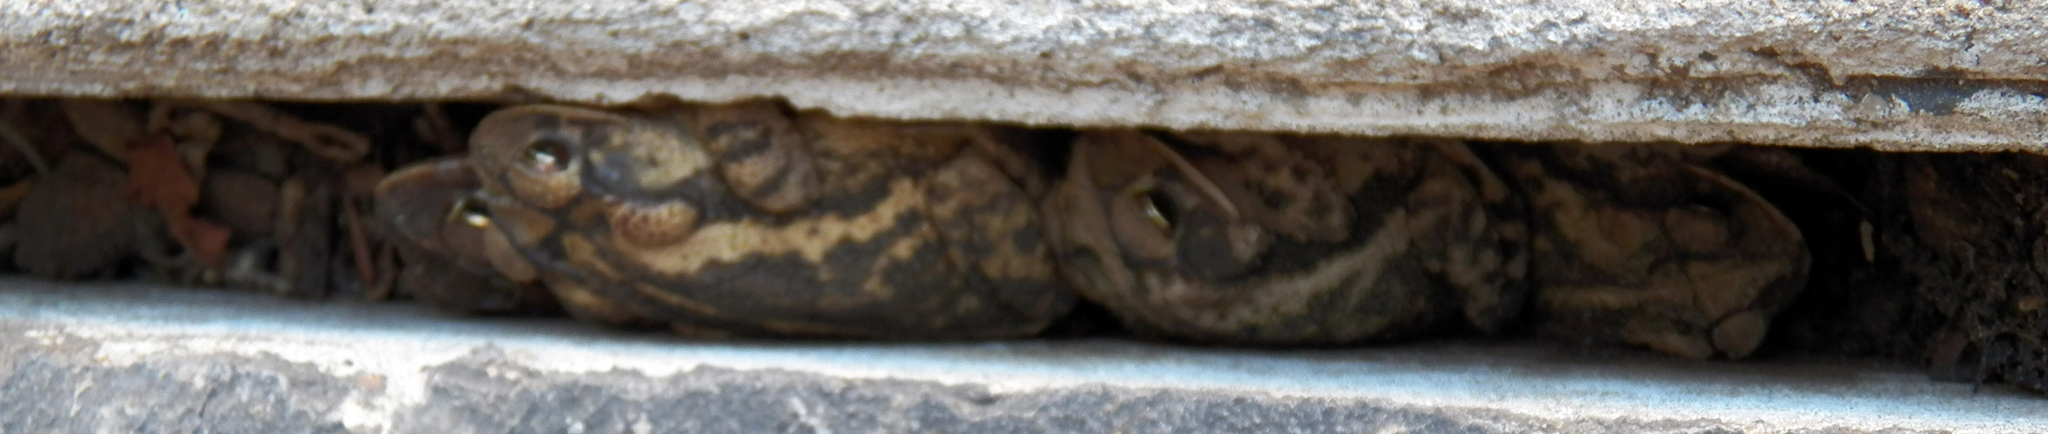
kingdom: Animalia
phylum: Chordata
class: Amphibia
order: Anura
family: Bufonidae
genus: Incilius
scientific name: Incilius nebulifer
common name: Gulf coast toad
